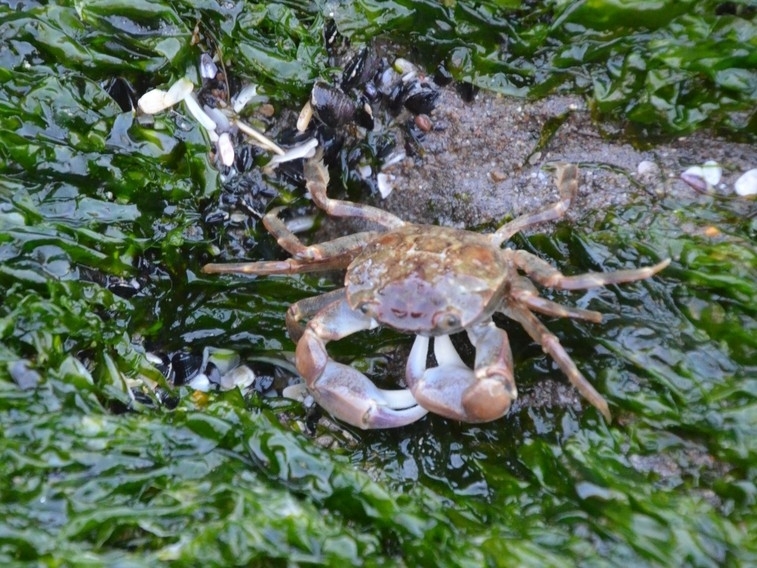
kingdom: Animalia
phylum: Arthropoda
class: Malacostraca
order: Decapoda
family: Varunidae
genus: Neohelice
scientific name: Neohelice granulata
